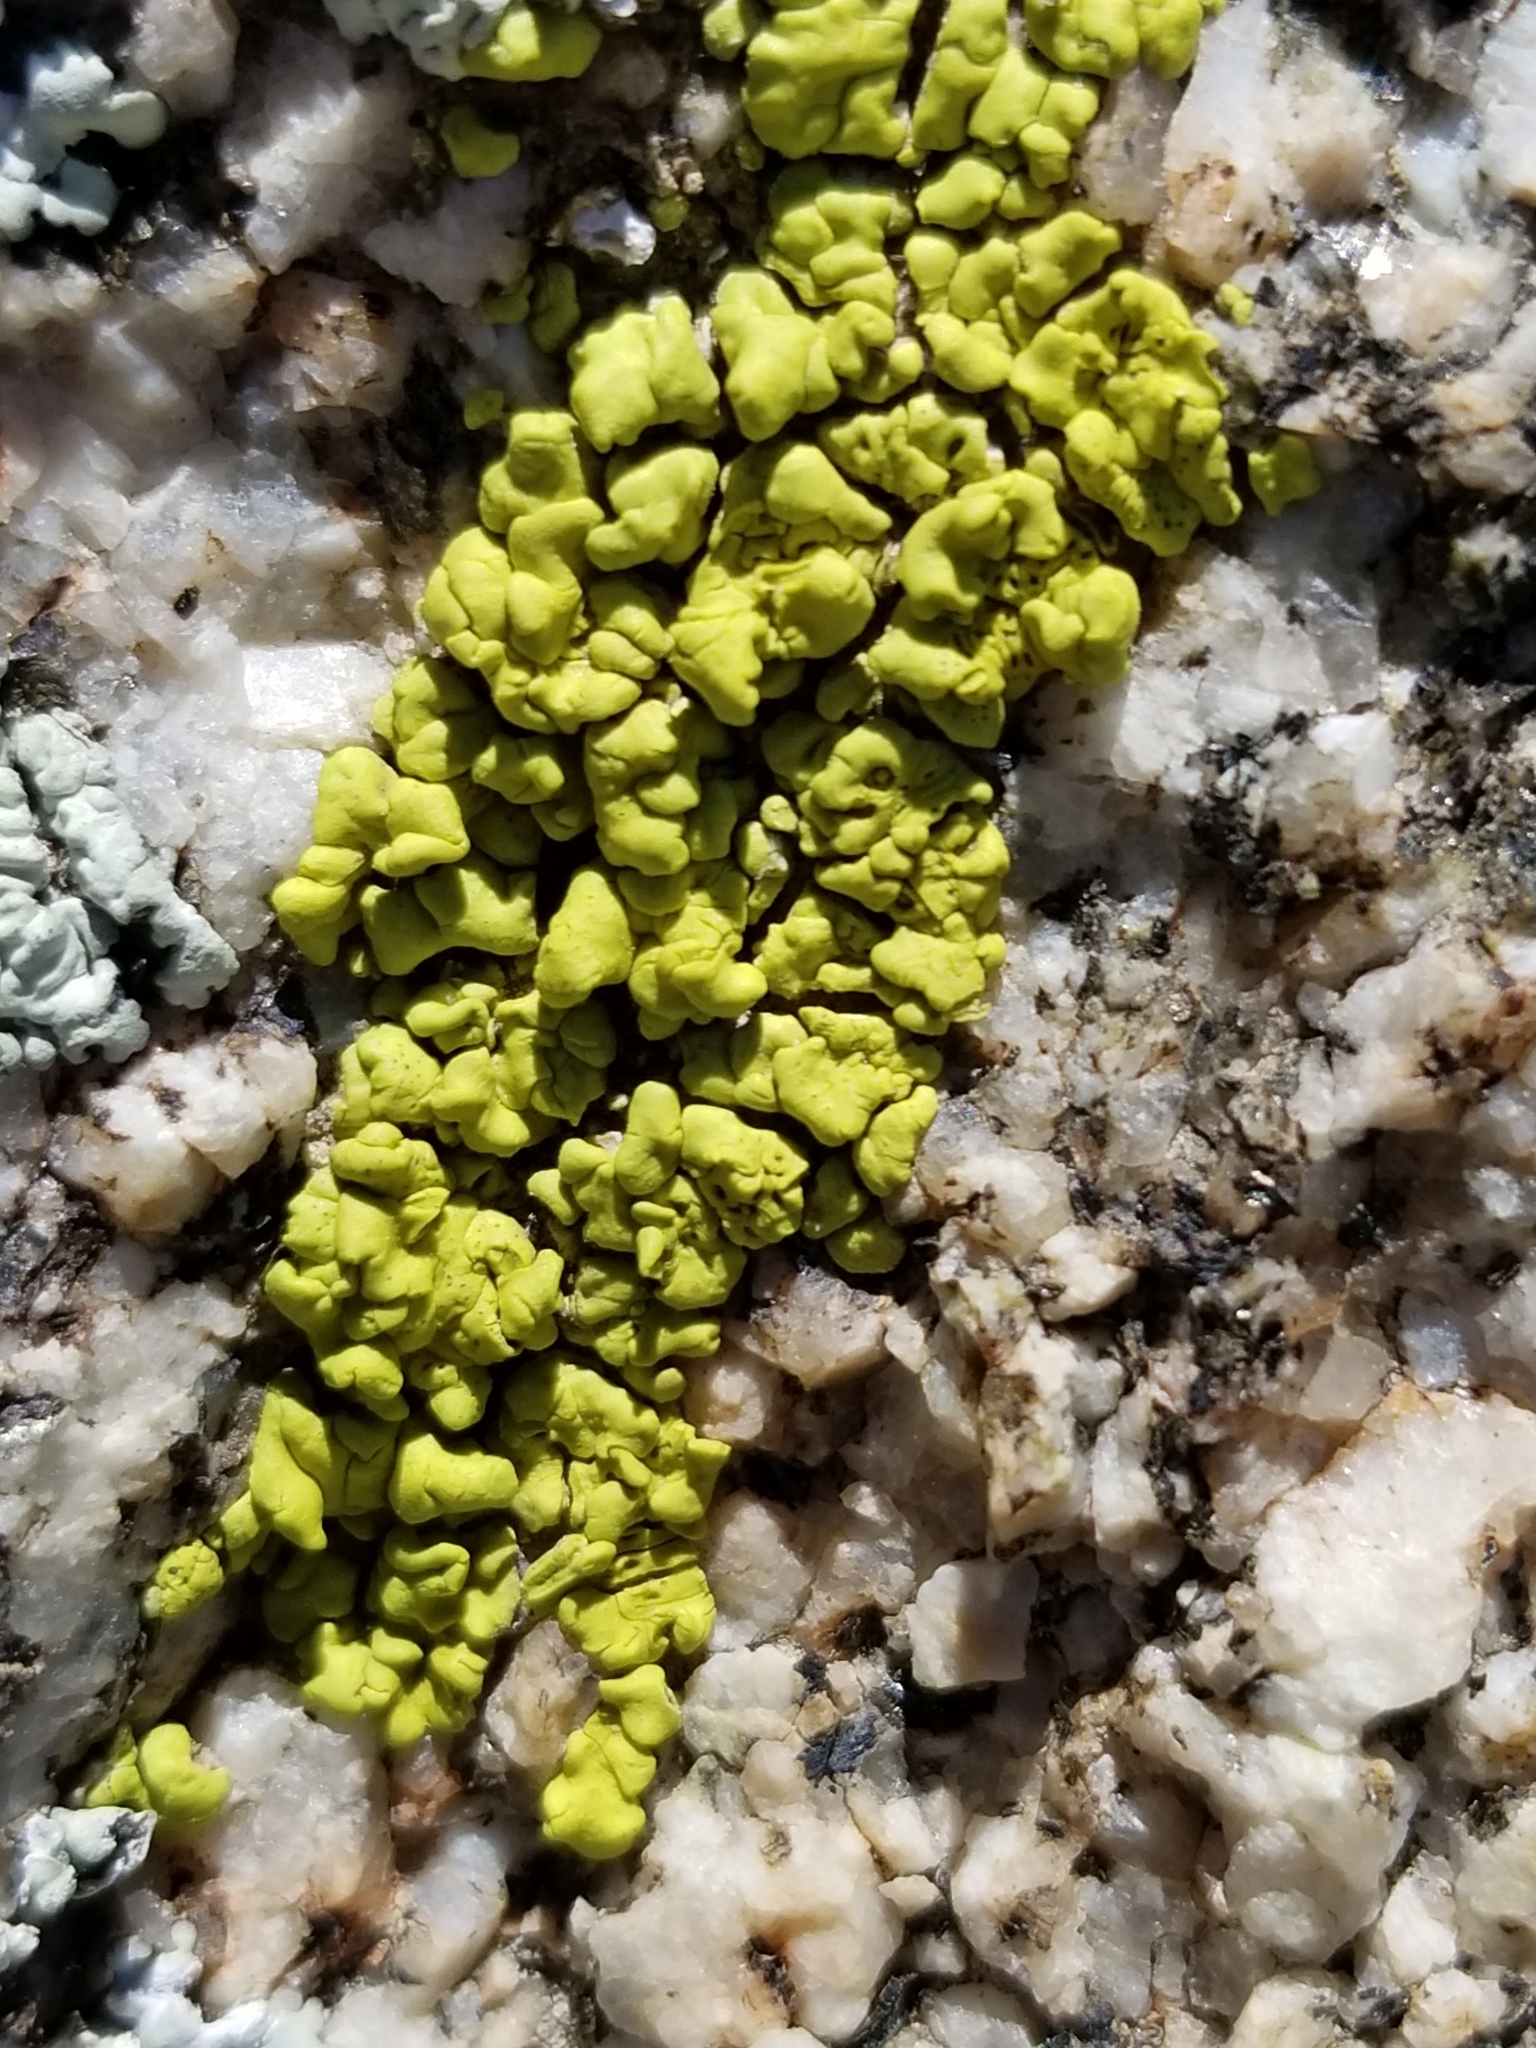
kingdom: Fungi
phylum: Ascomycota
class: Lecanoromycetes
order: Acarosporales
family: Acarosporaceae
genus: Acarospora
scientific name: Acarospora socialis
